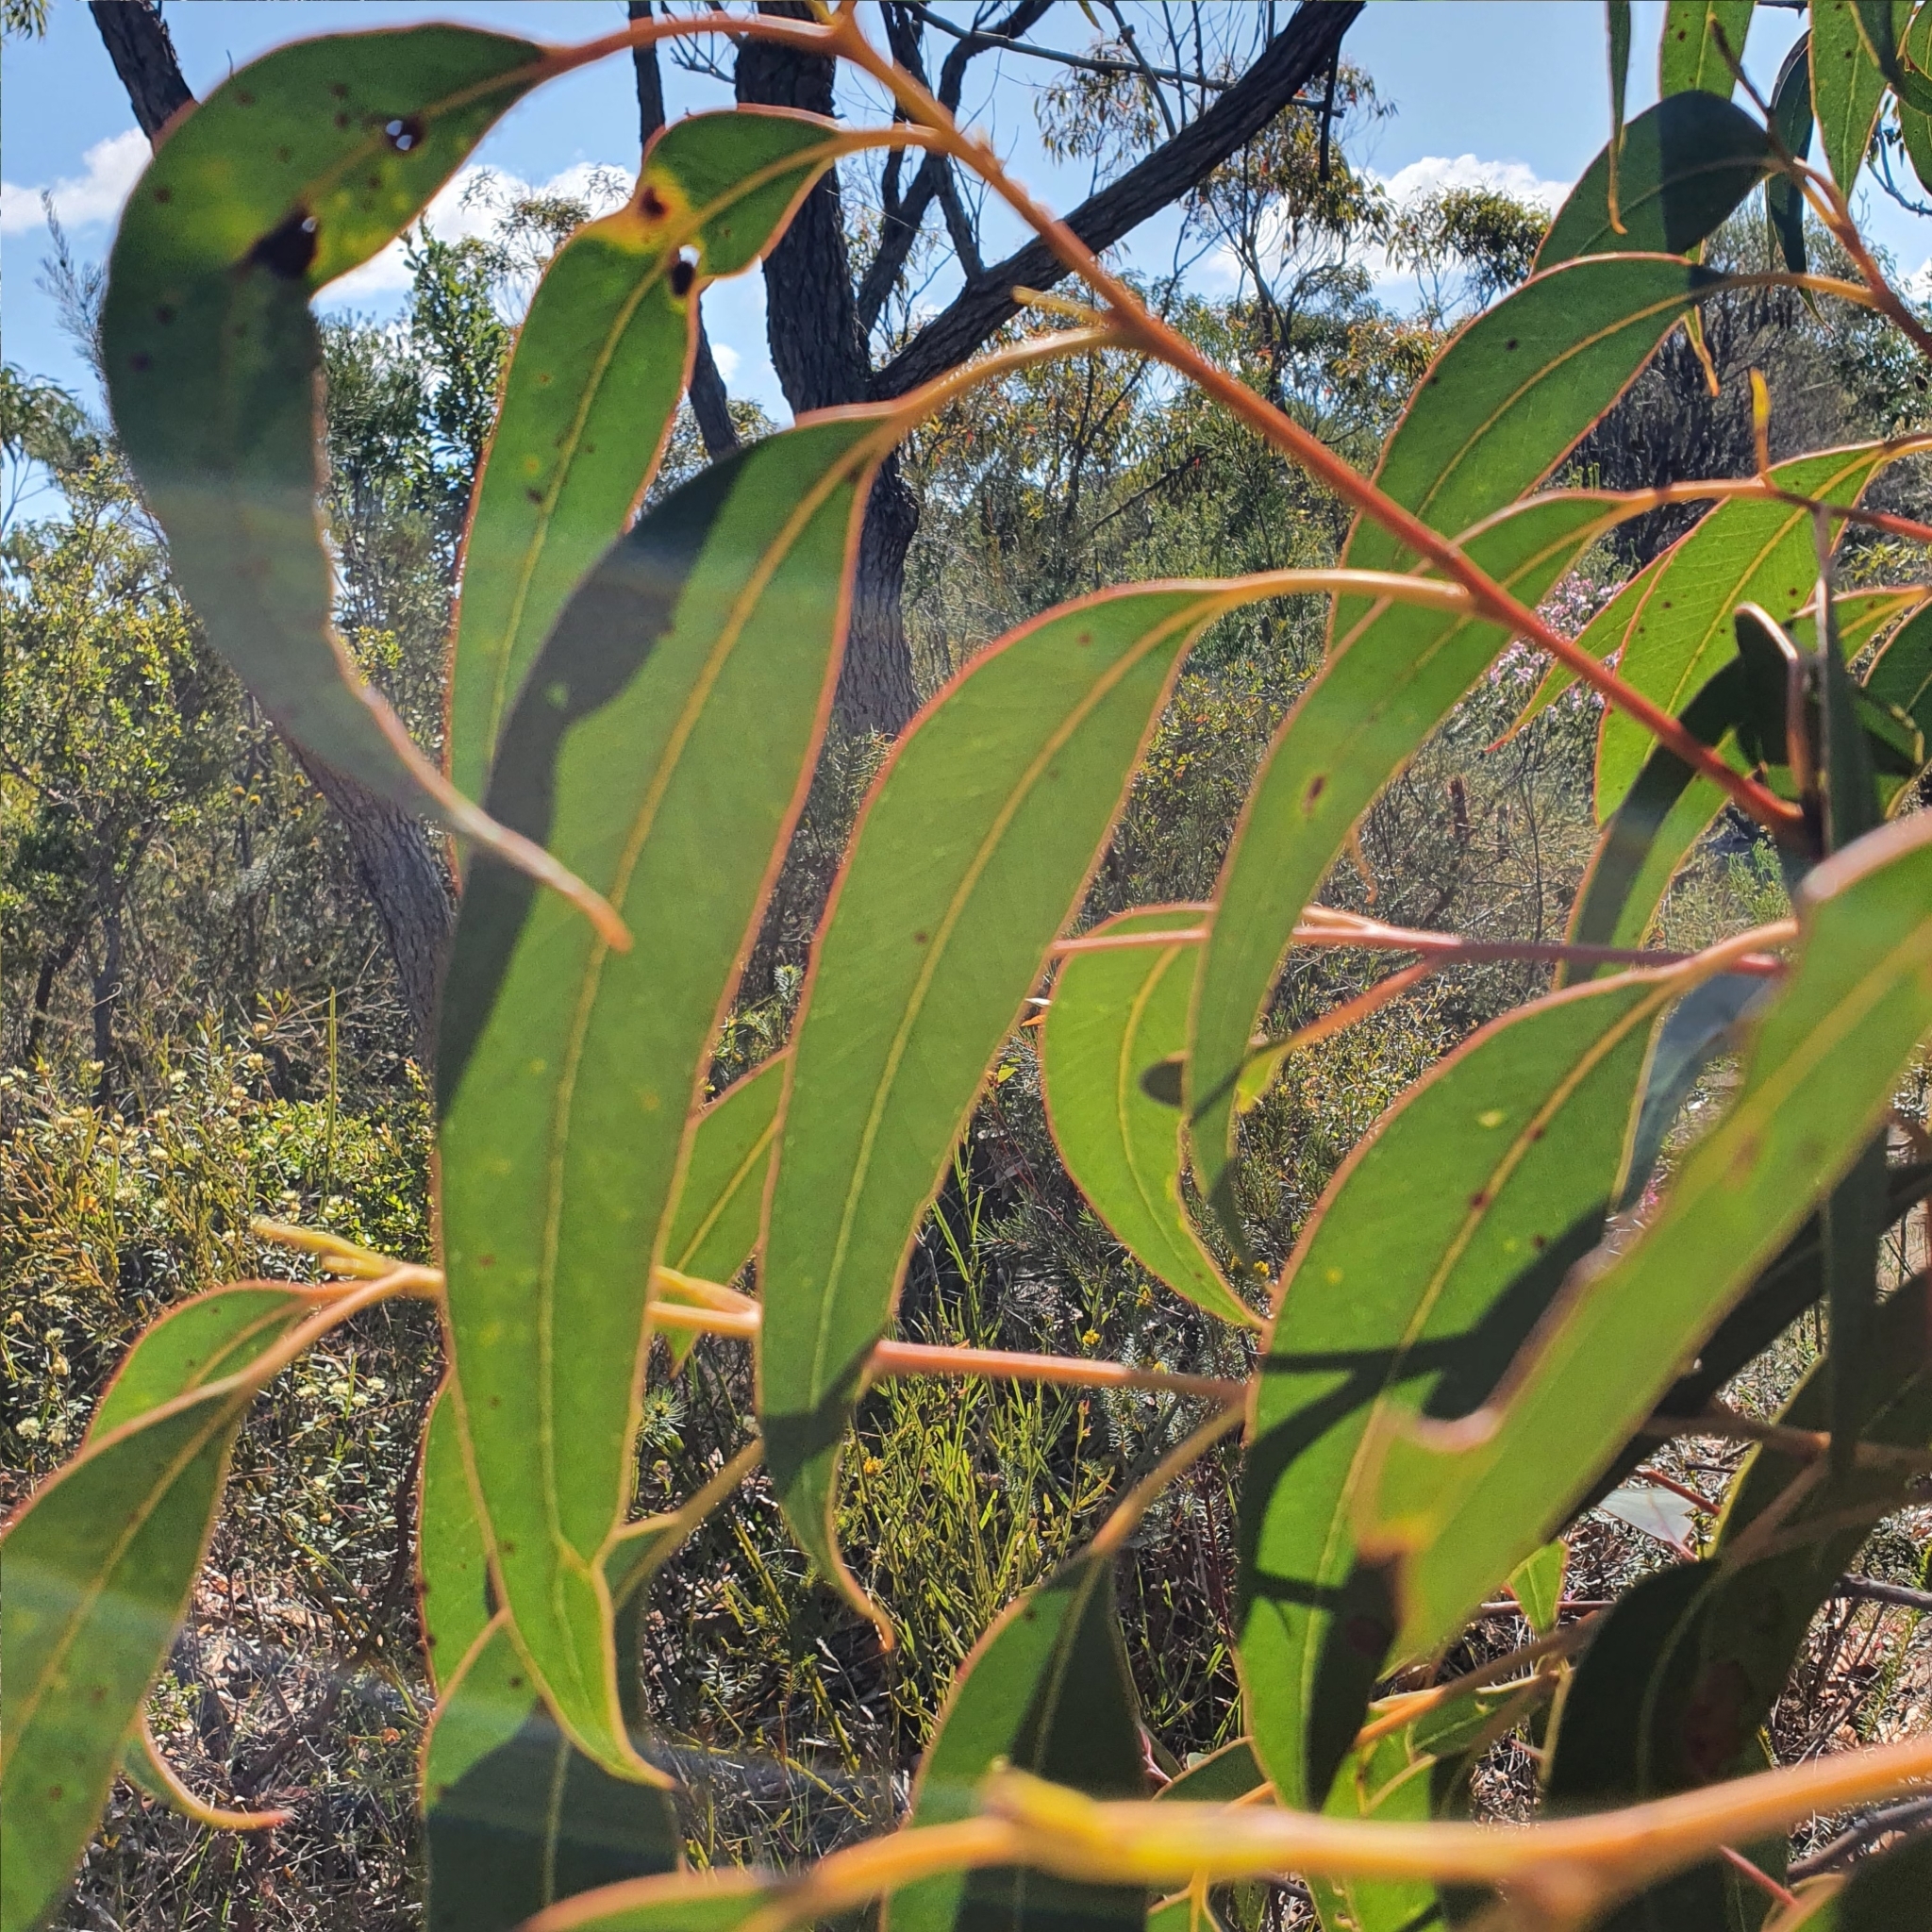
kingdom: Plantae
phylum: Tracheophyta
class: Magnoliopsida
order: Myrtales
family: Myrtaceae
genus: Eucalyptus
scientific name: Eucalyptus umbra
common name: White-mahogany
